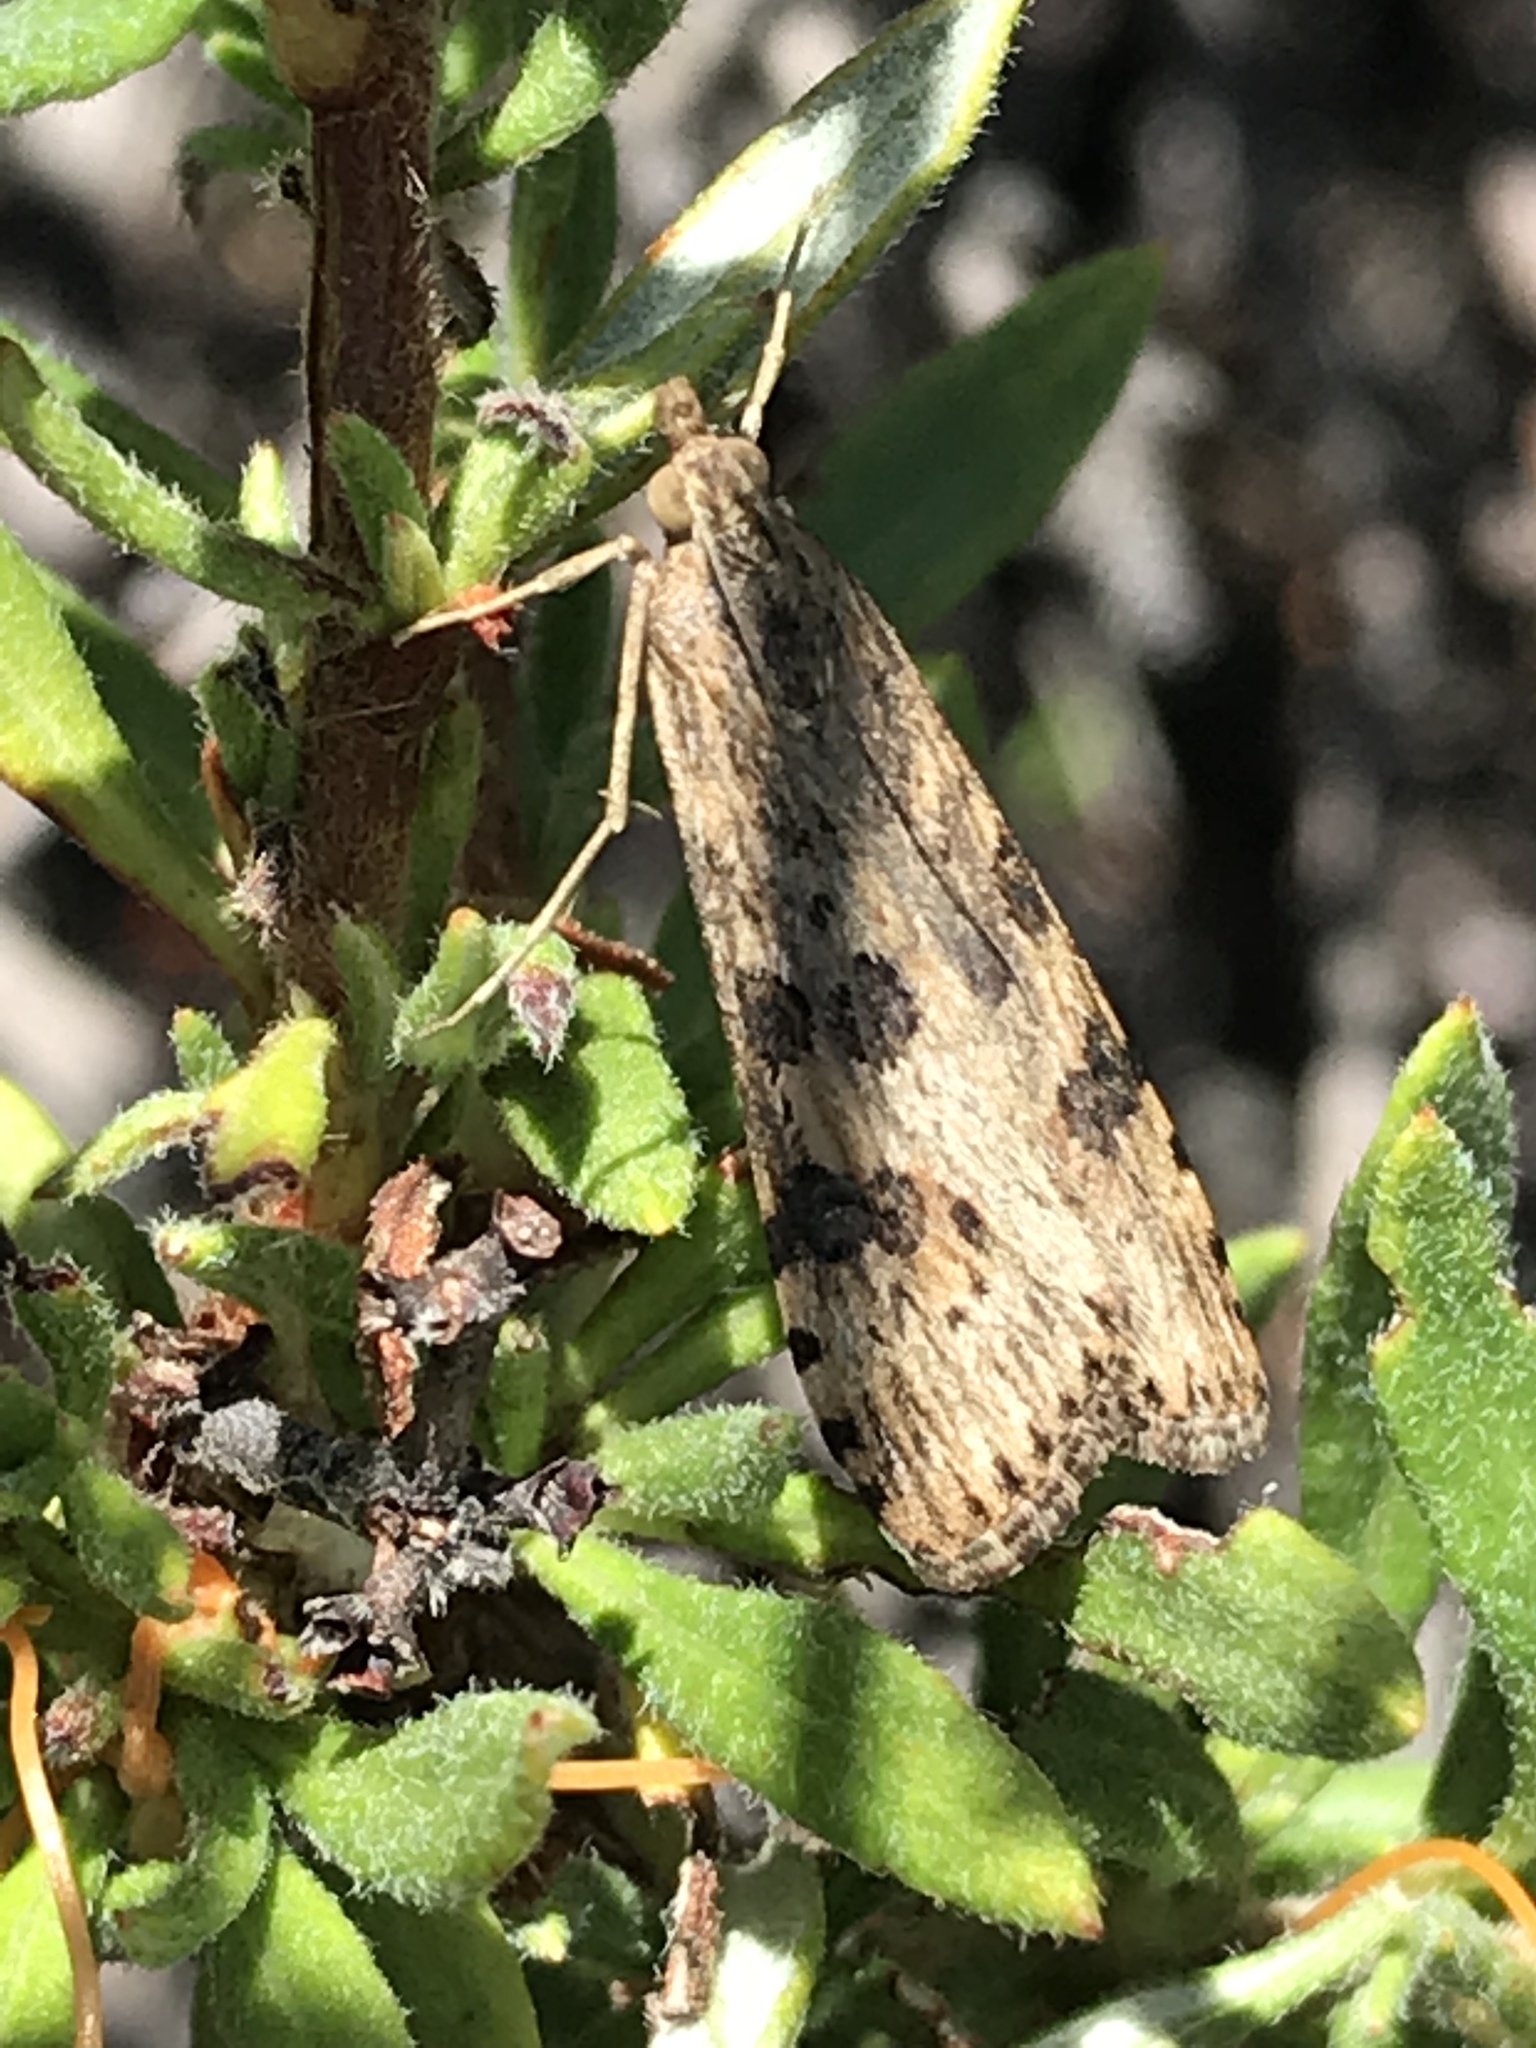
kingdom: Animalia
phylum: Arthropoda
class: Insecta
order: Lepidoptera
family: Crambidae
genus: Nomophila
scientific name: Nomophila nearctica
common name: American rush veneer
